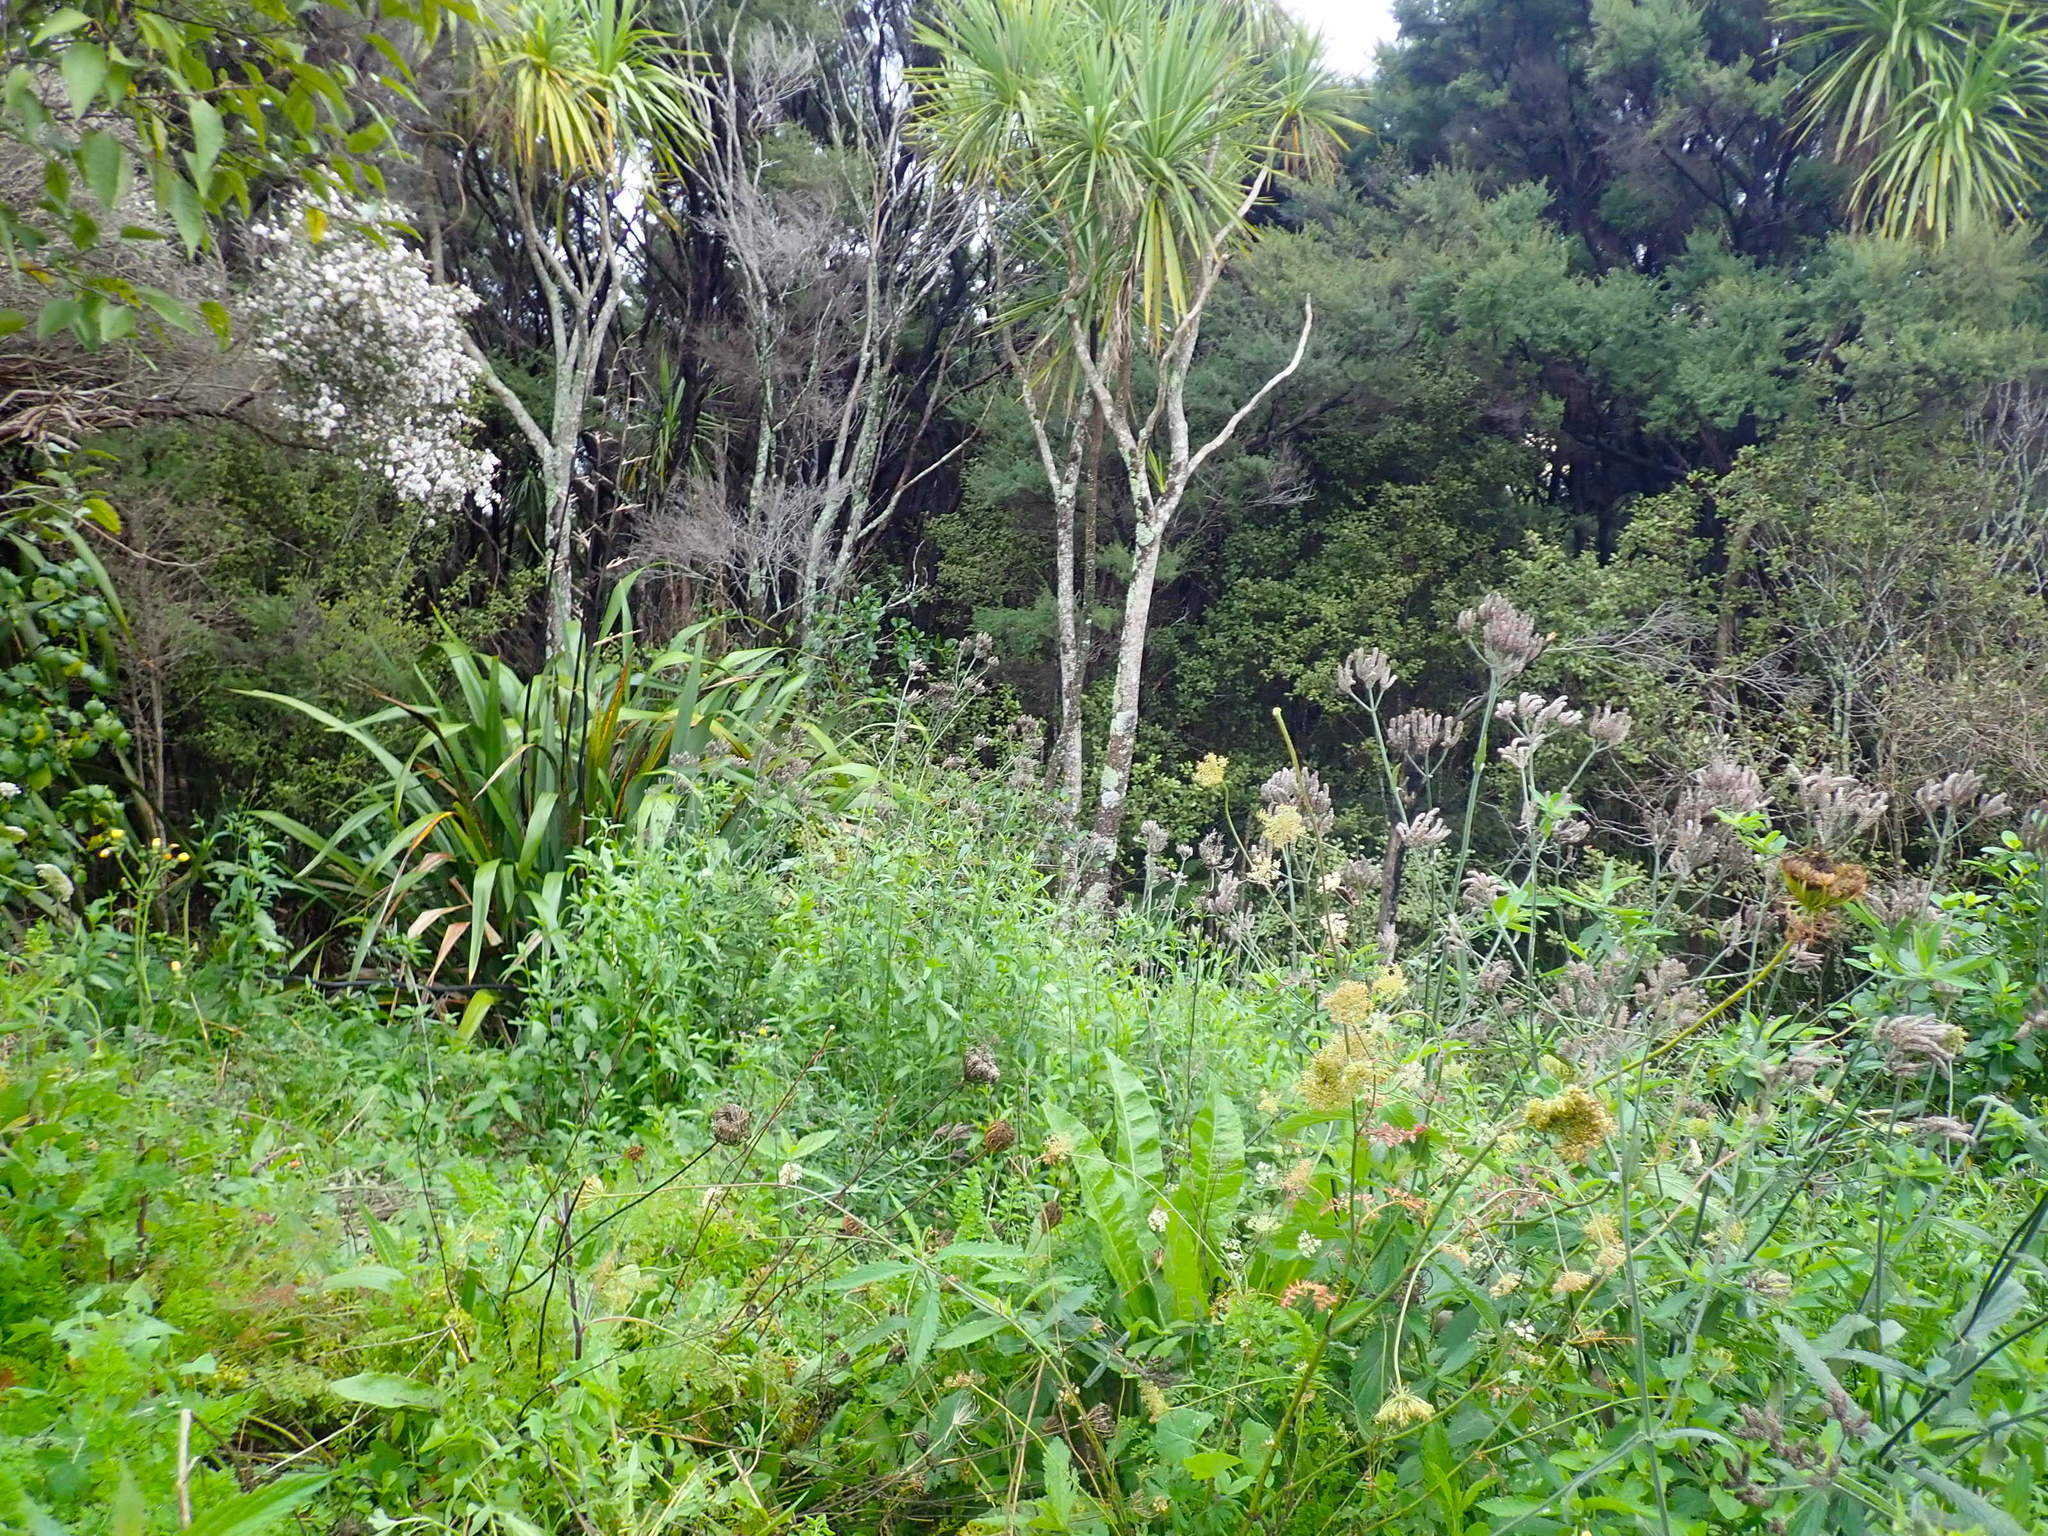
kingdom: Plantae
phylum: Tracheophyta
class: Liliopsida
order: Asparagales
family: Asparagaceae
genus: Cordyline
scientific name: Cordyline australis
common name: Cabbage-palm
